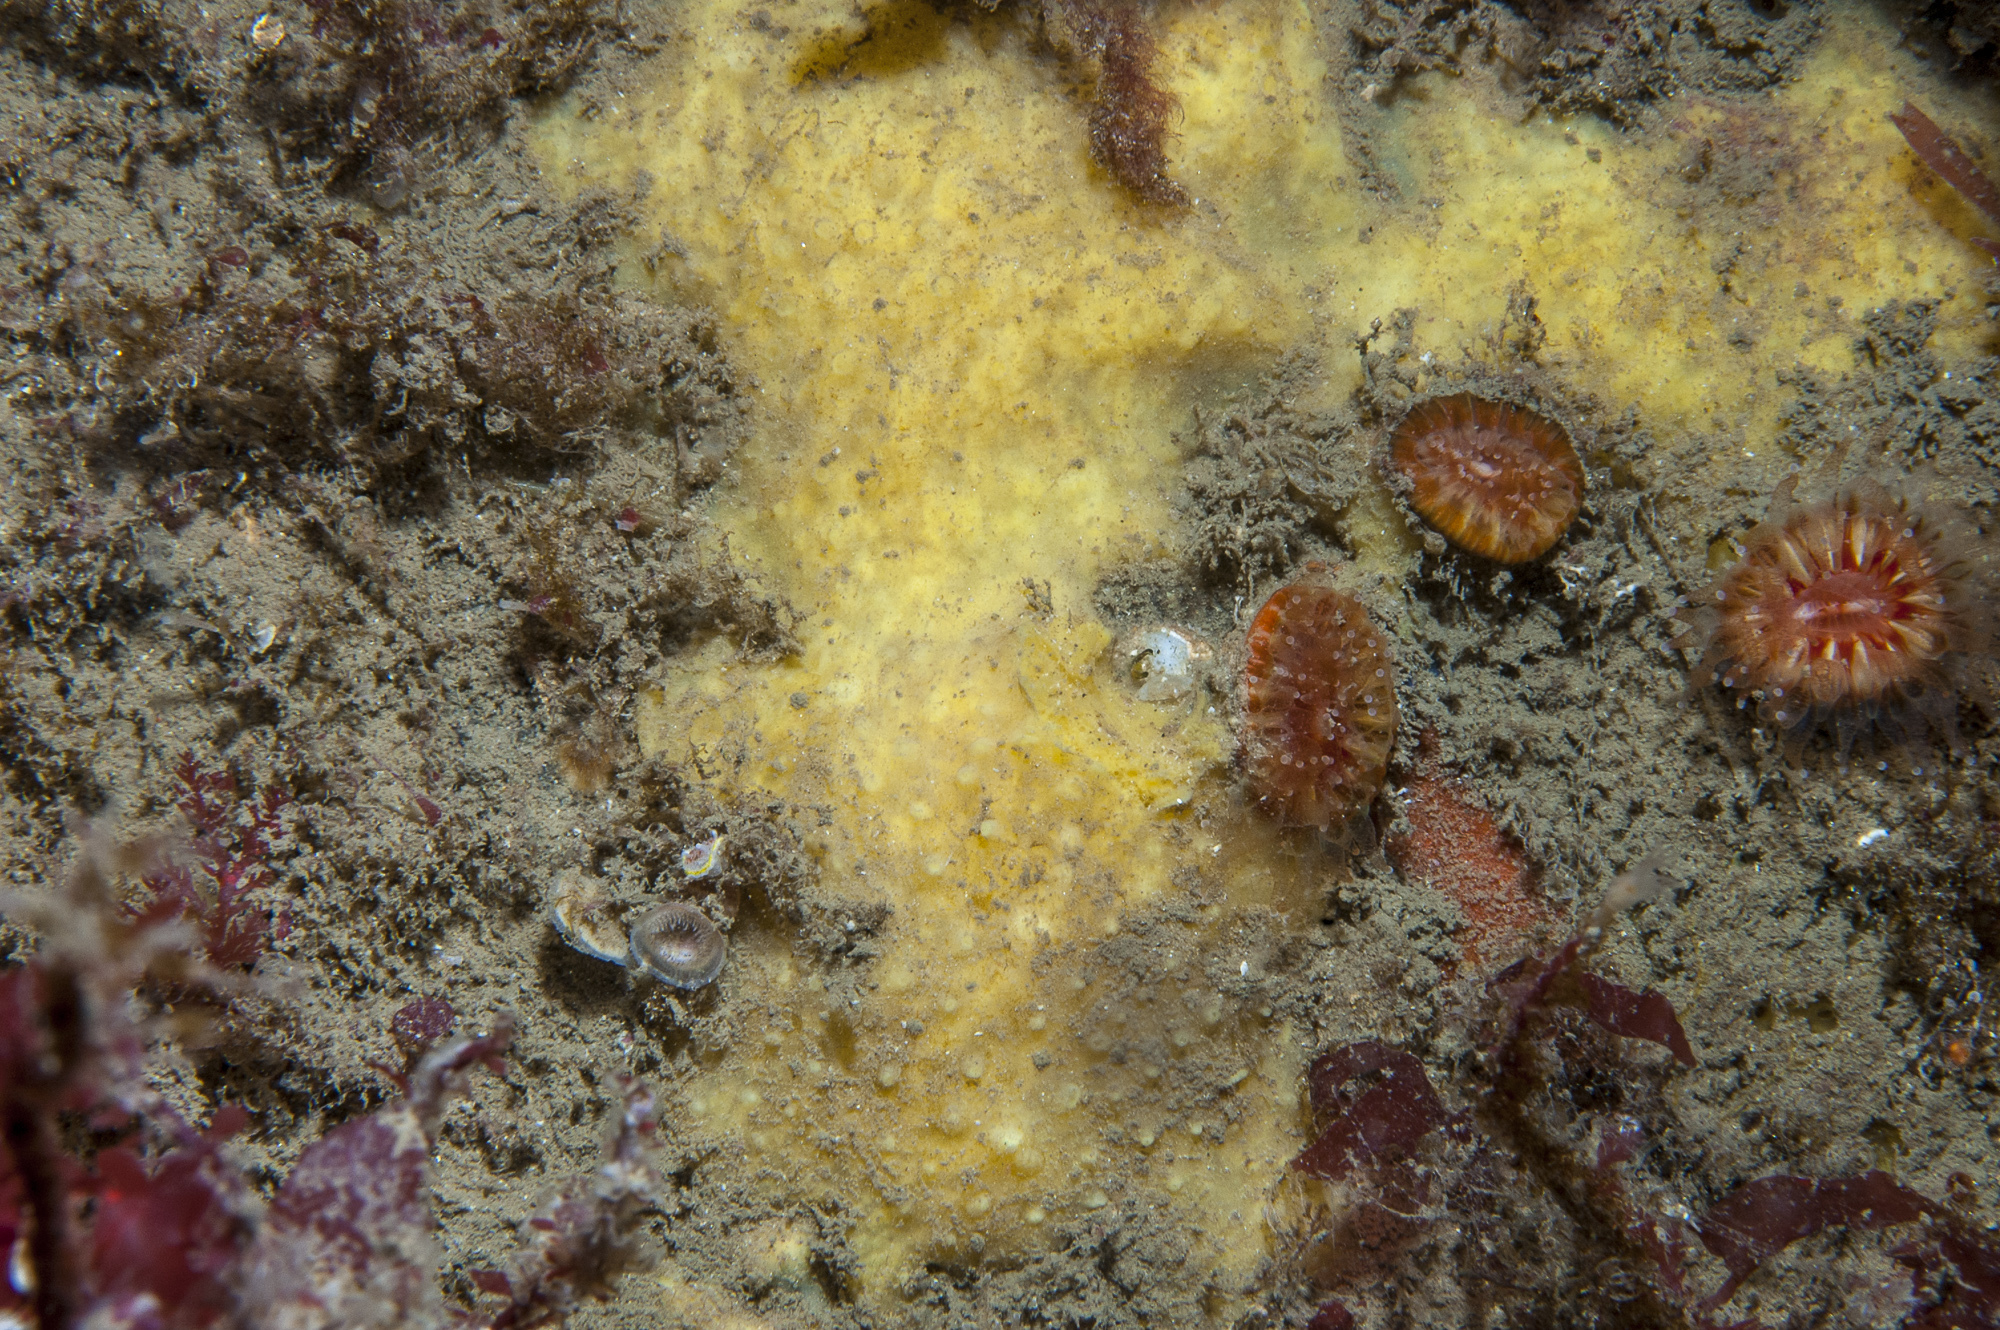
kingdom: Animalia
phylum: Porifera
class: Demospongiae
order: Poecilosclerida
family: Coelosphaeridae
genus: Lissodendoryx
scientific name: Lissodendoryx jenjonesae
